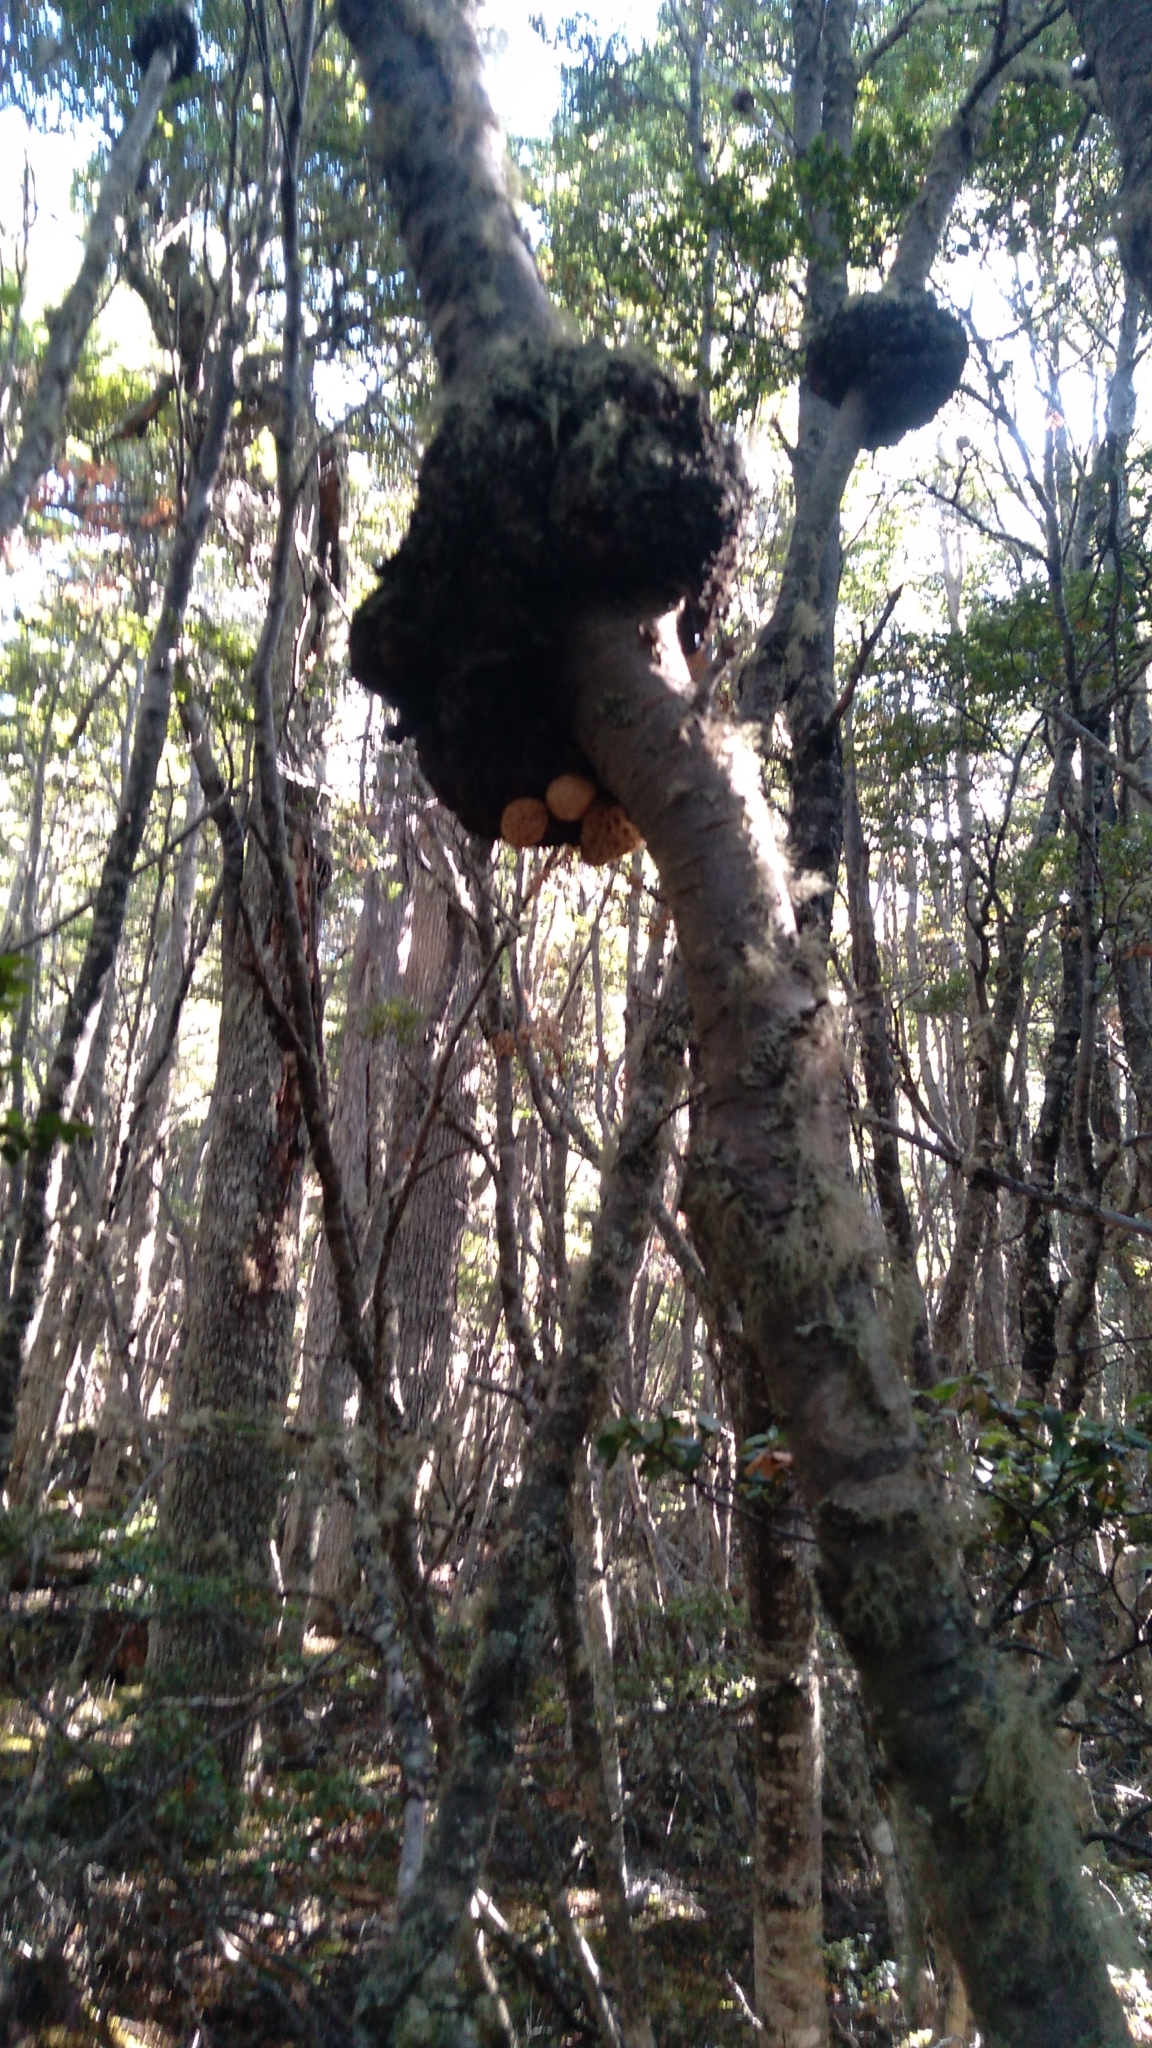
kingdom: Fungi
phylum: Ascomycota
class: Leotiomycetes
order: Cyttariales
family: Cyttariaceae
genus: Cyttaria
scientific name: Cyttaria hariotii
